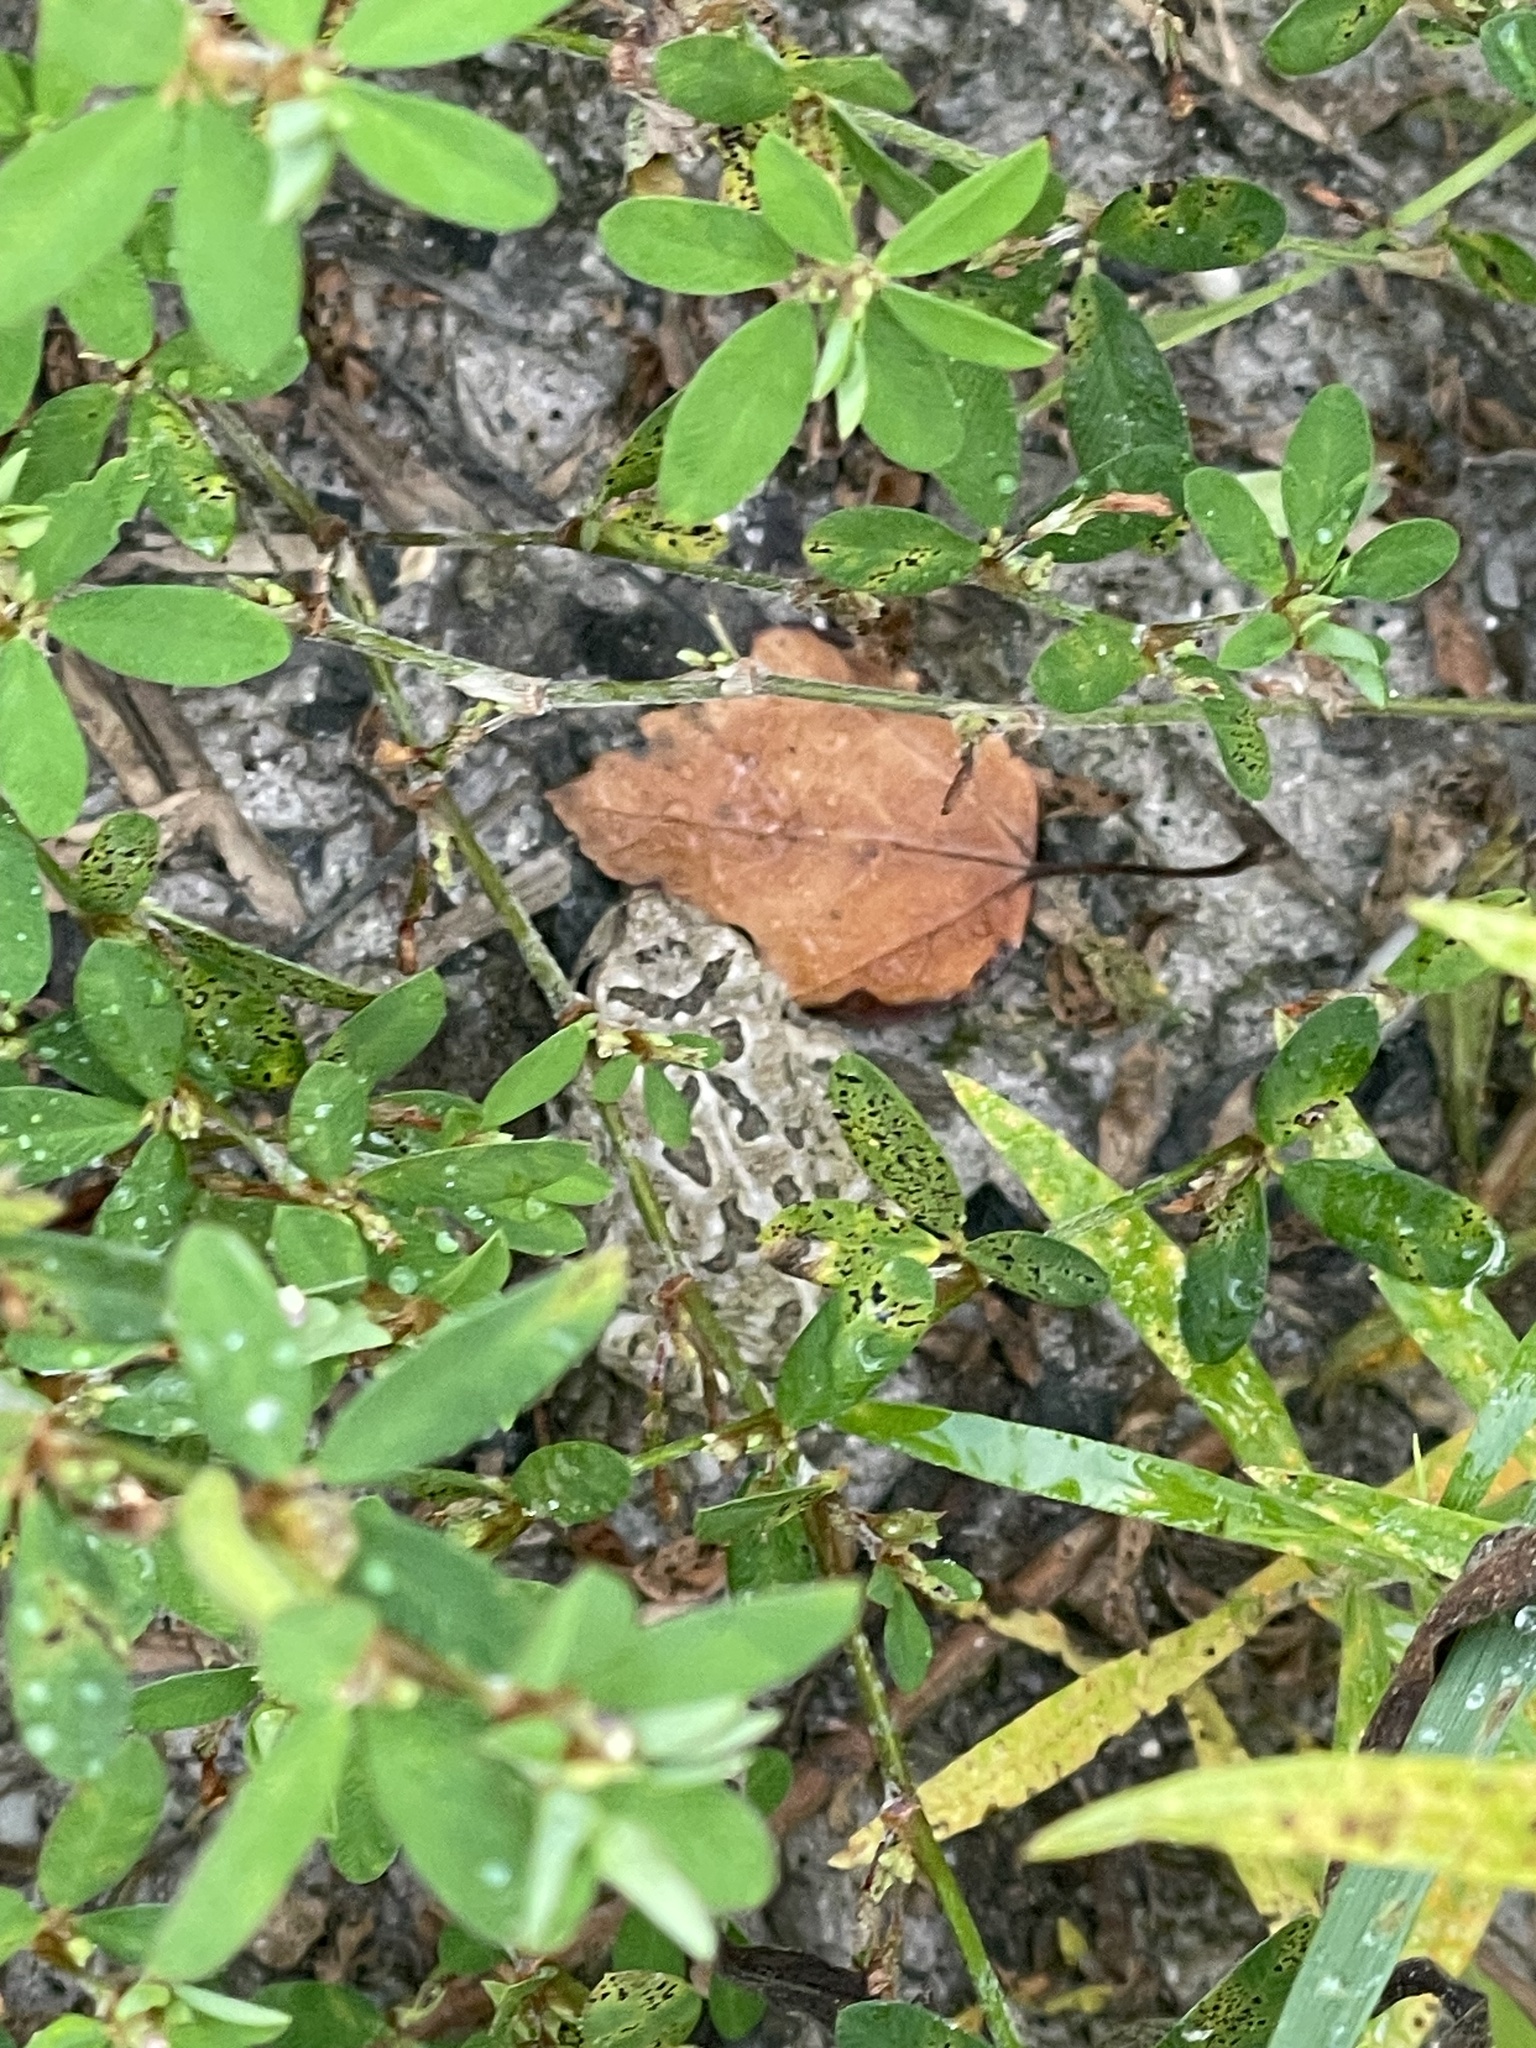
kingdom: Animalia
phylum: Chordata
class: Amphibia
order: Anura
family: Bufonidae
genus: Anaxyrus
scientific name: Anaxyrus fowleri
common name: Fowler's toad
